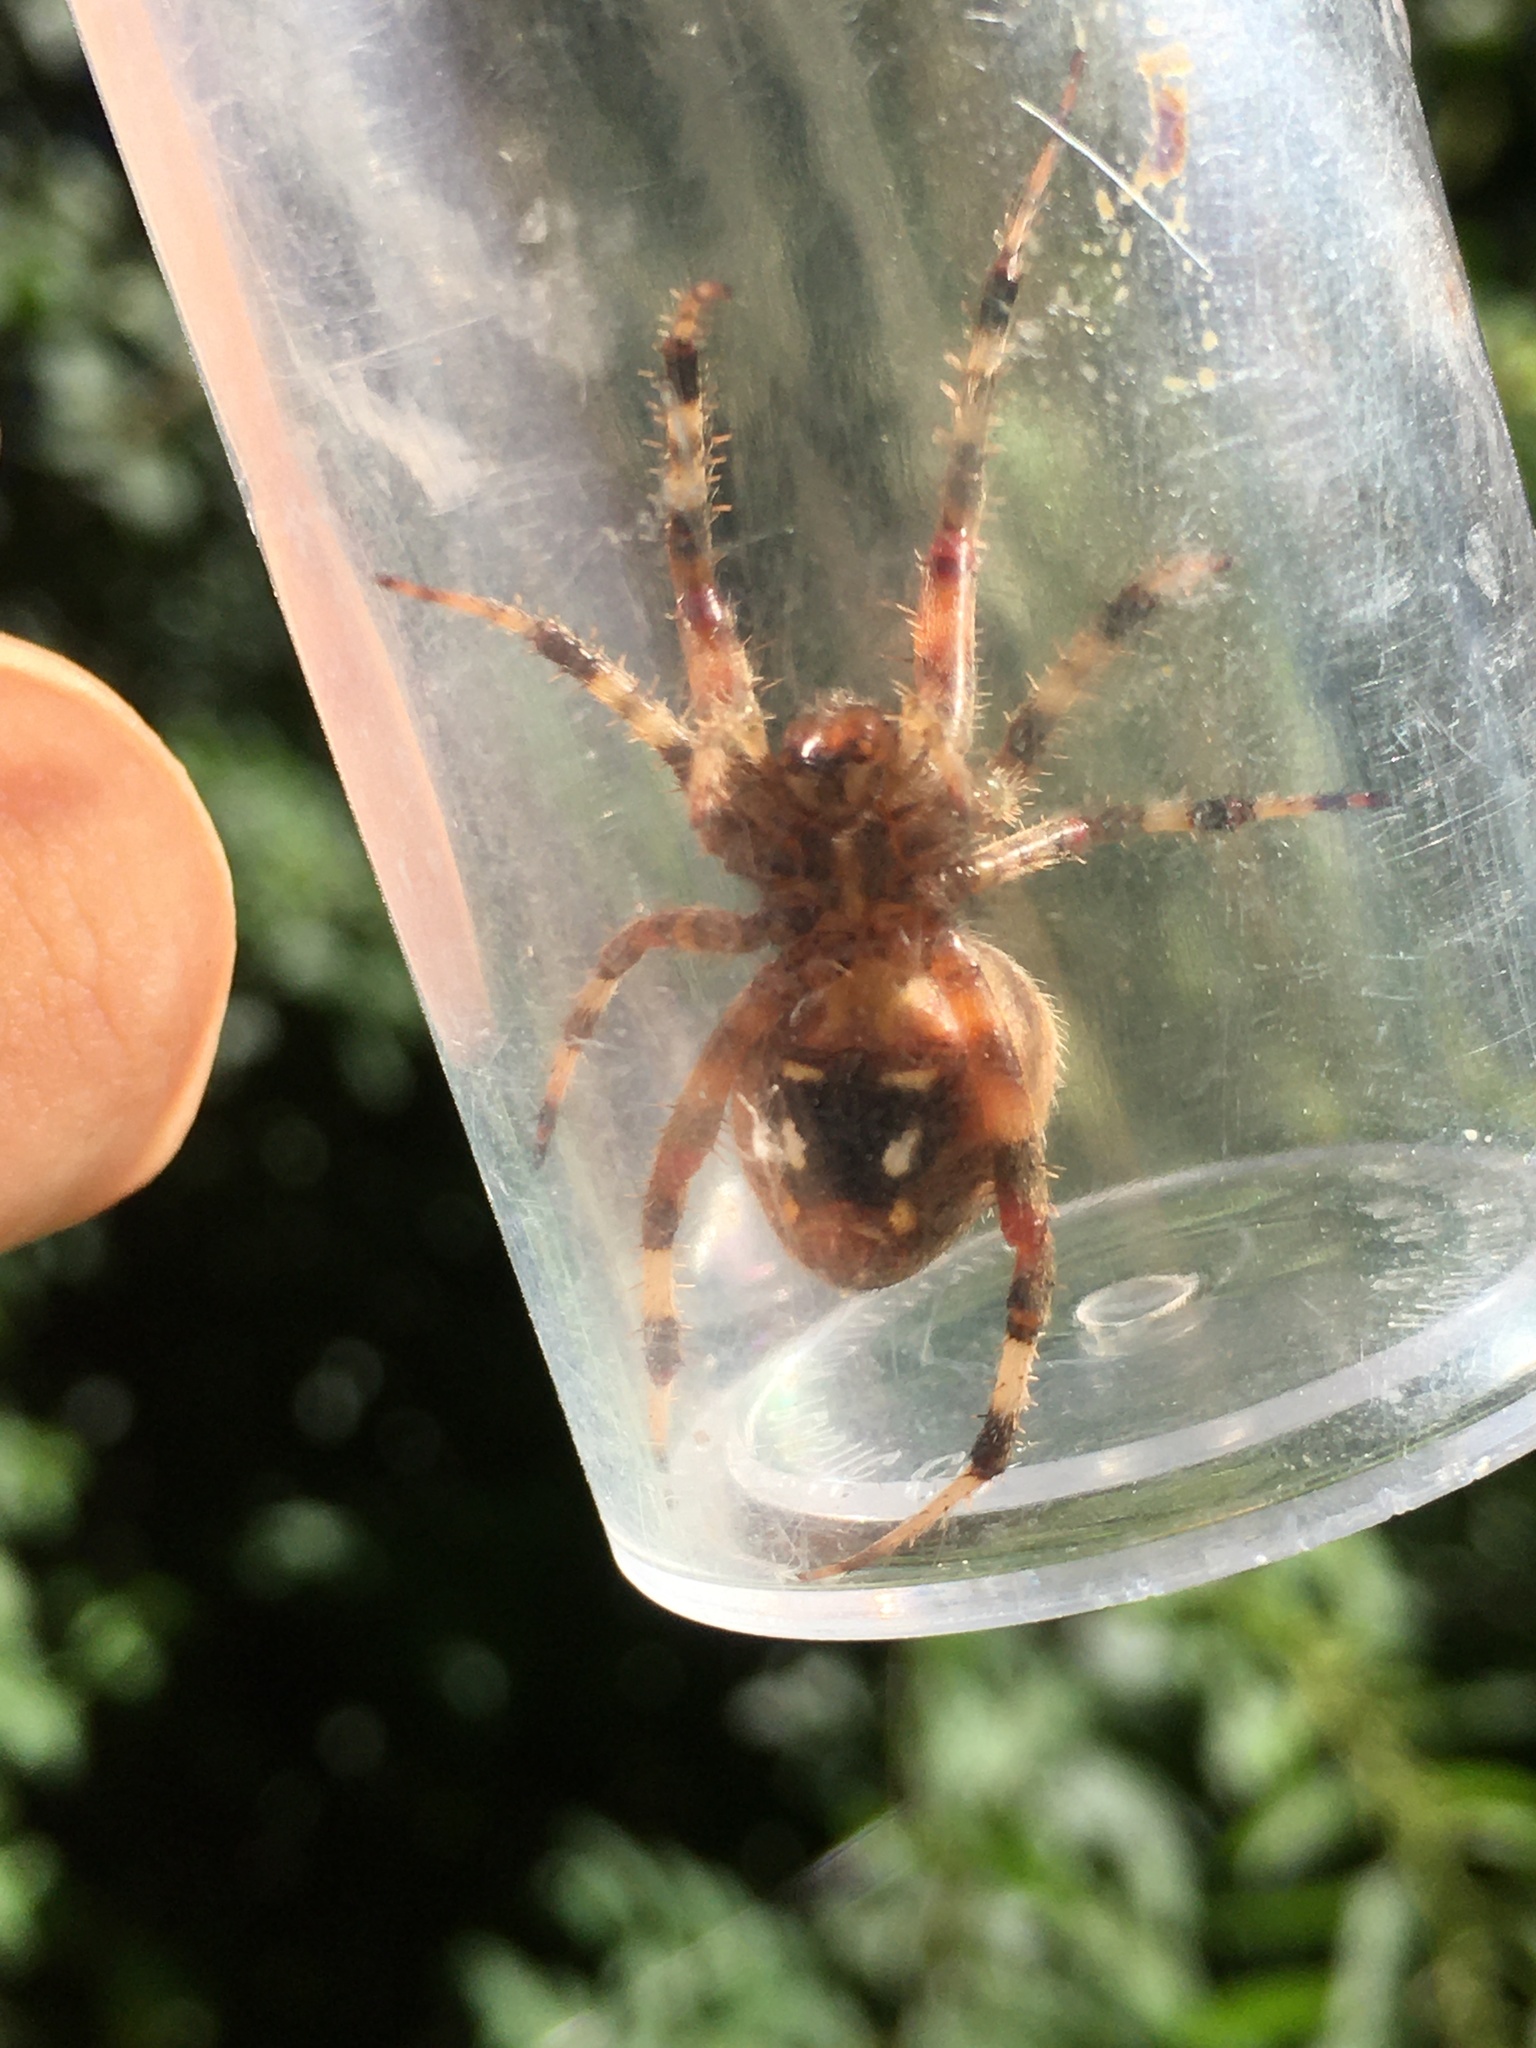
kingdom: Animalia
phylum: Arthropoda
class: Arachnida
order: Araneae
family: Araneidae
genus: Neoscona
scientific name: Neoscona crucifera
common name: Spotted orbweaver
